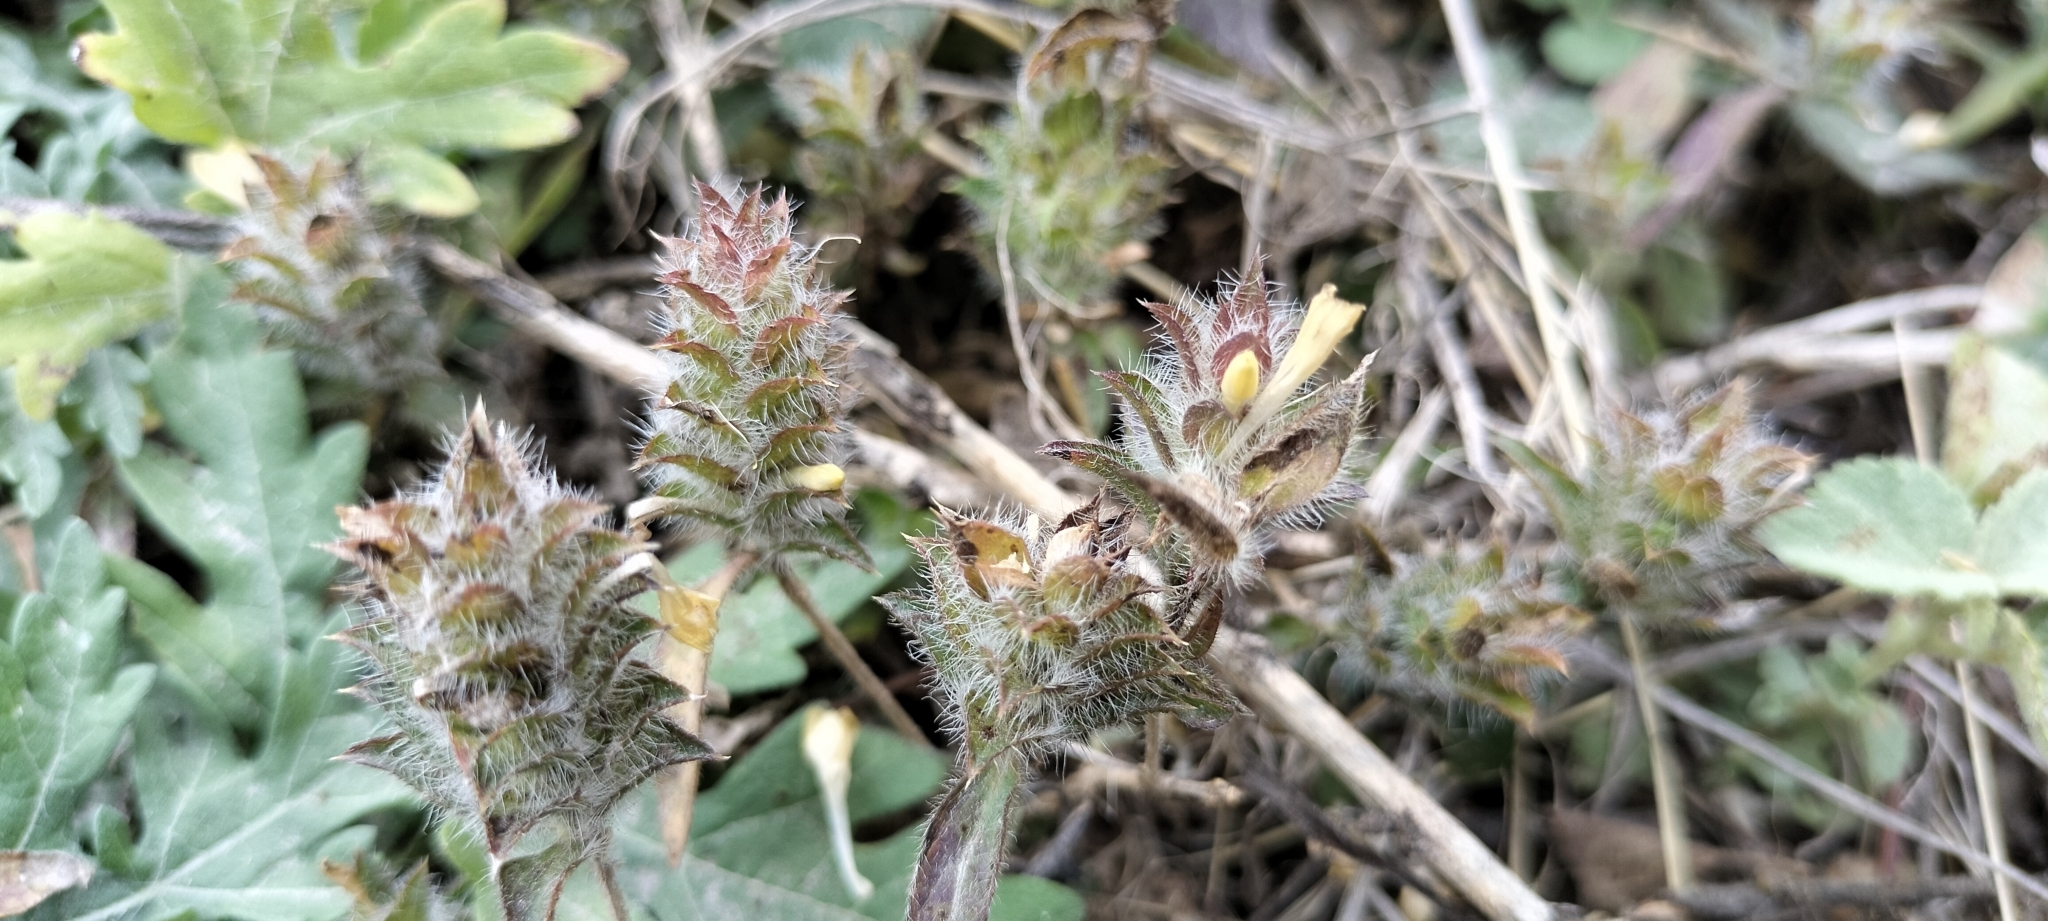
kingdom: Plantae
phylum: Tracheophyta
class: Magnoliopsida
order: Lamiales
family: Acanthaceae
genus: Tetramerium
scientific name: Tetramerium nervosum
